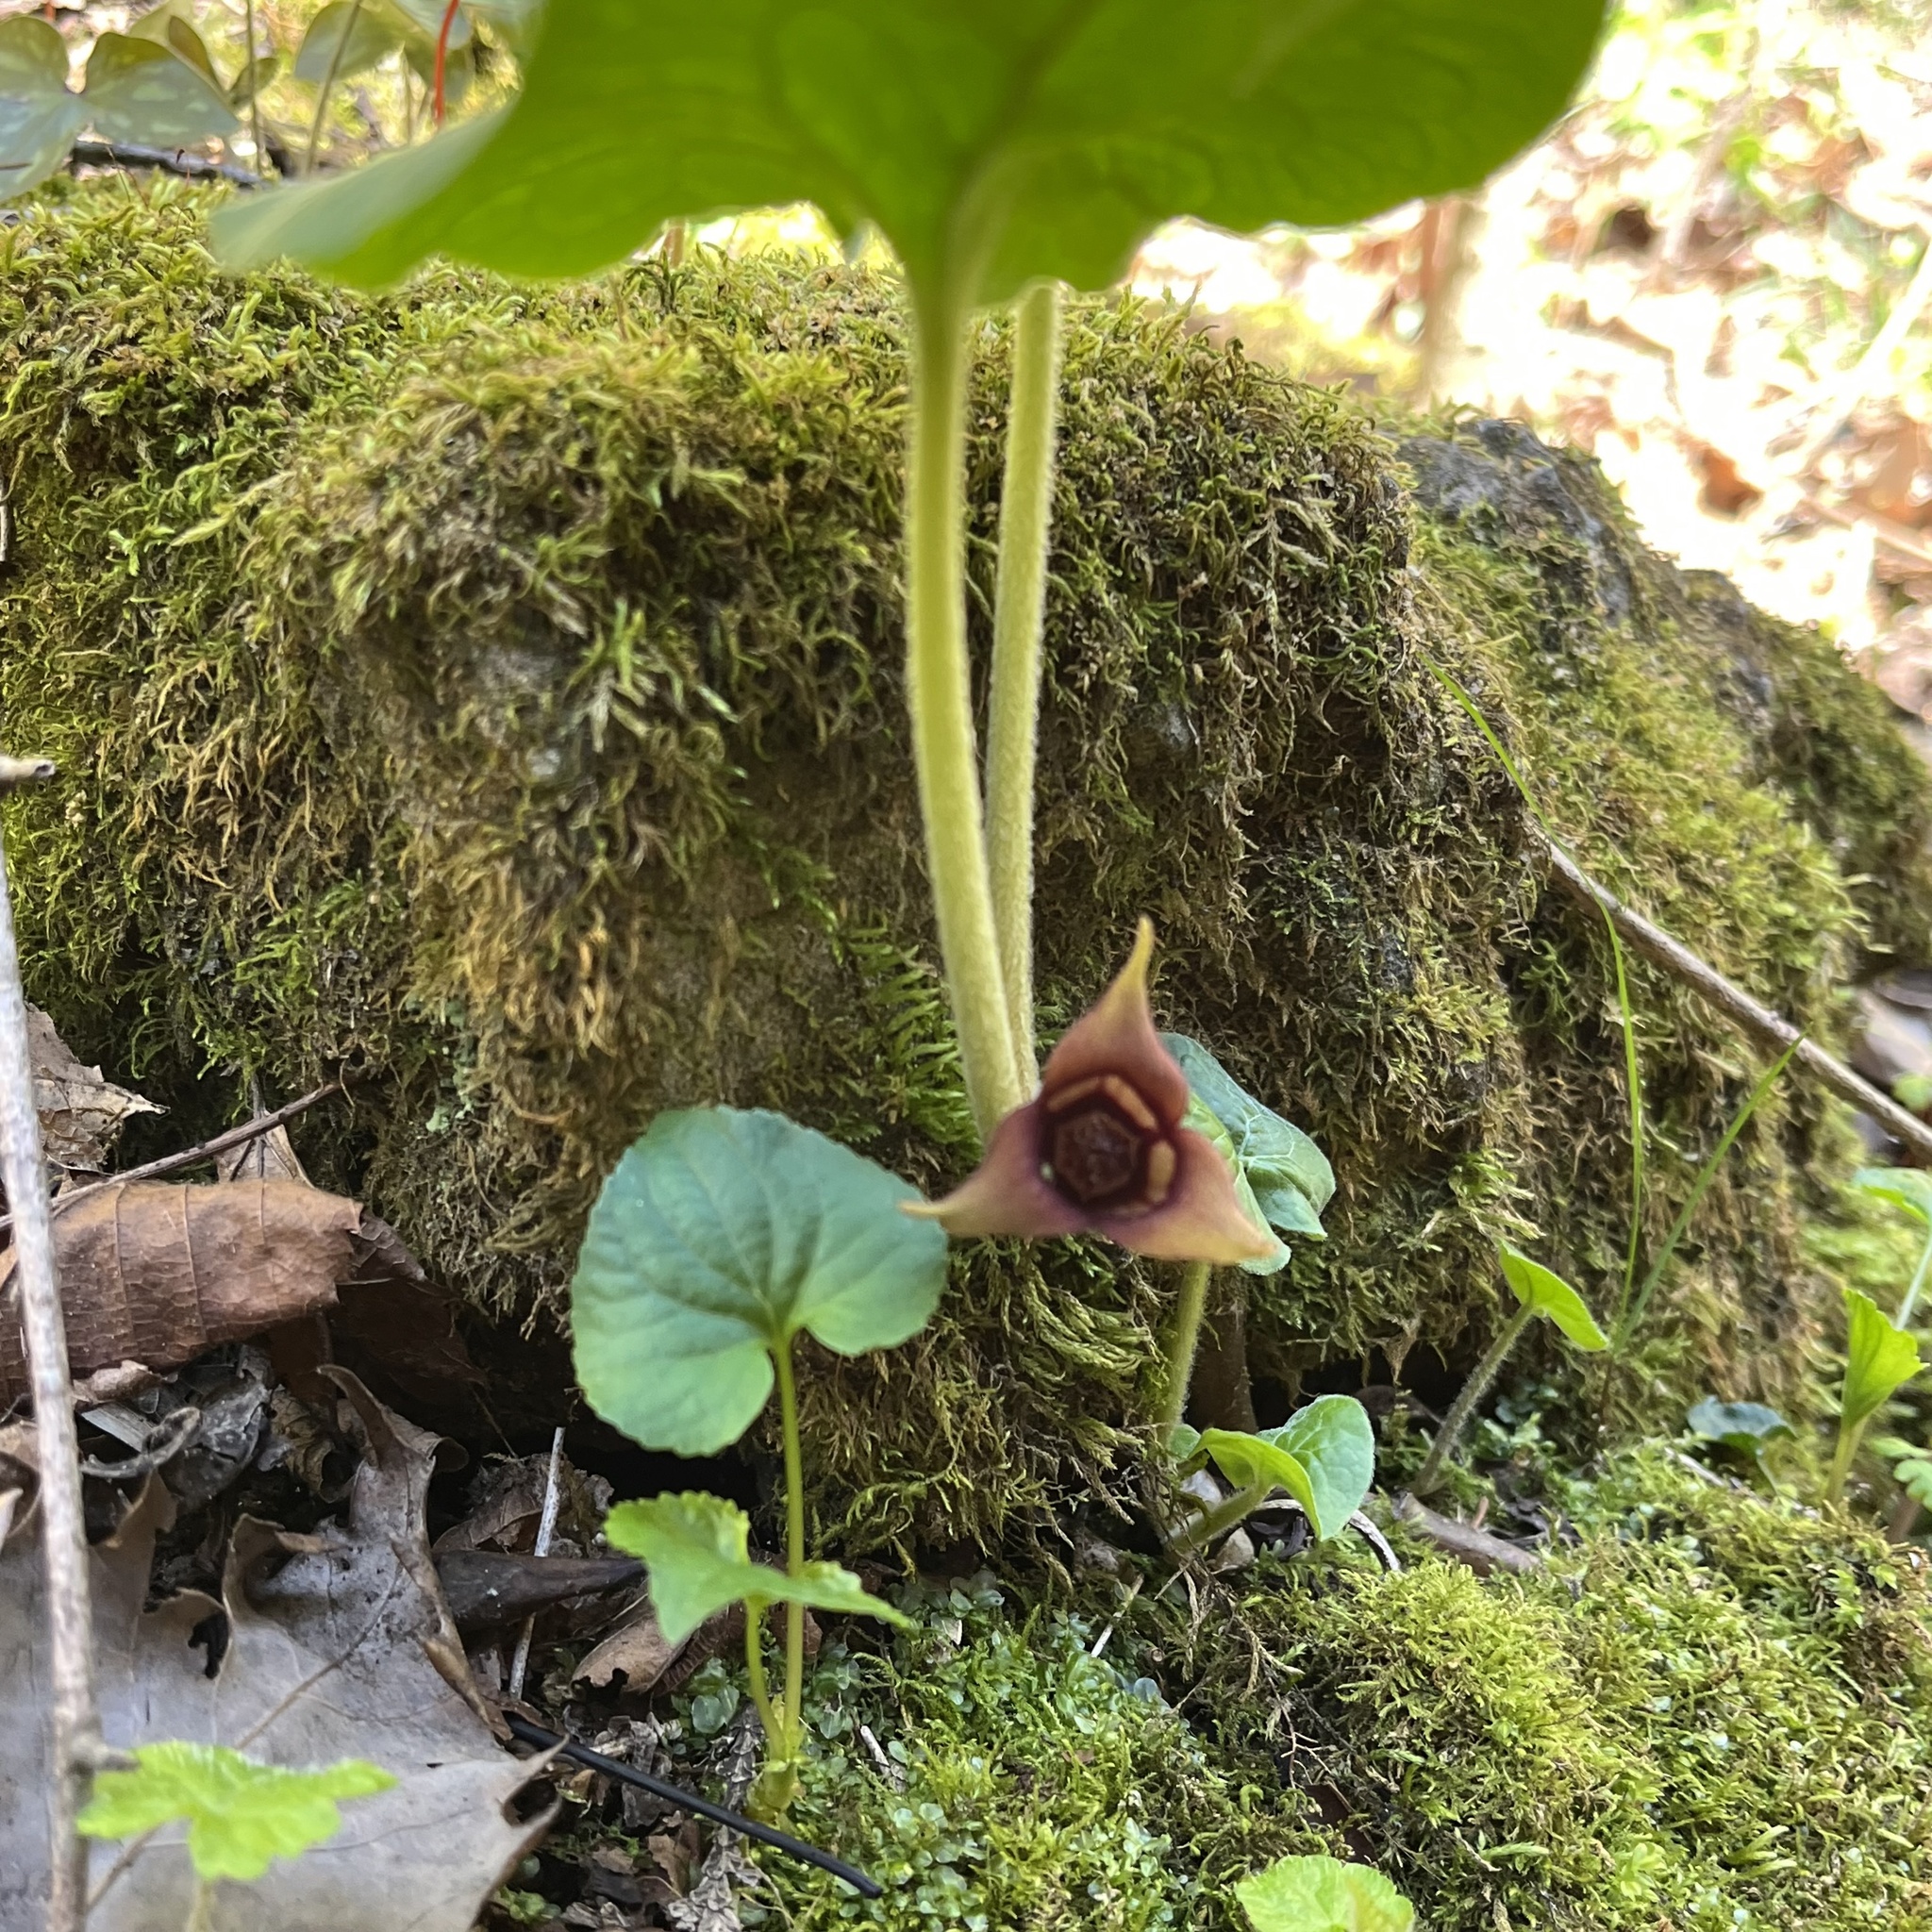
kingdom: Plantae
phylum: Tracheophyta
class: Magnoliopsida
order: Piperales
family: Aristolochiaceae
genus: Asarum
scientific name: Asarum canadense
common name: Wild ginger
